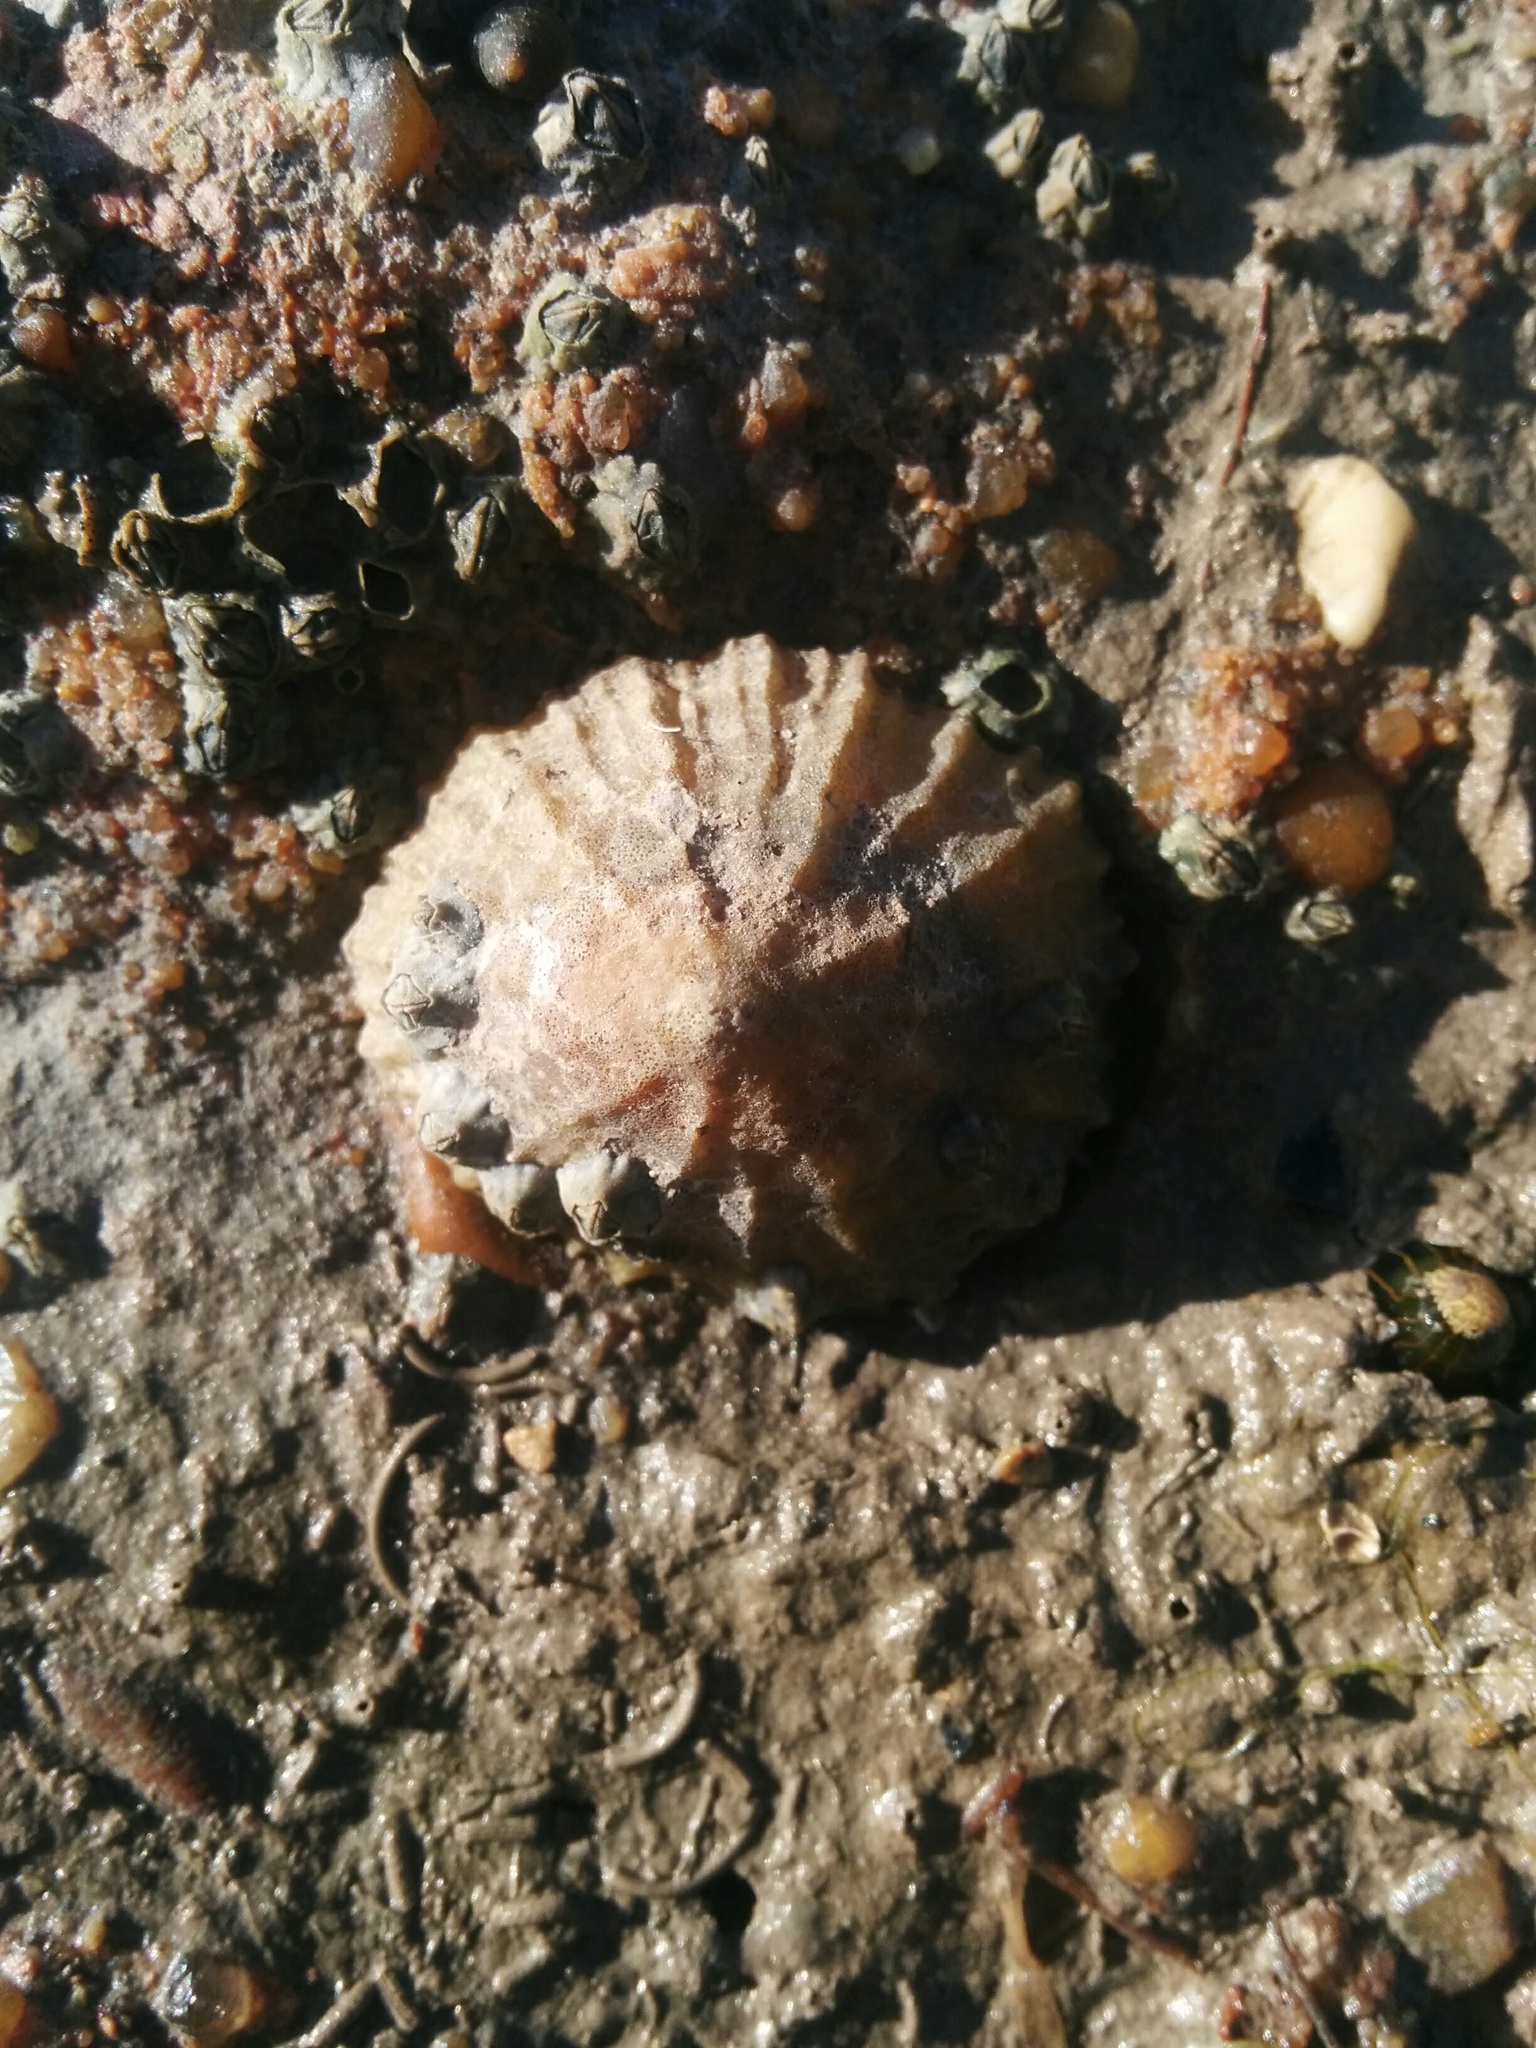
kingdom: Animalia
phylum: Mollusca
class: Gastropoda
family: Patellidae
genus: Patella
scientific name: Patella vulgata
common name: Common limpet
